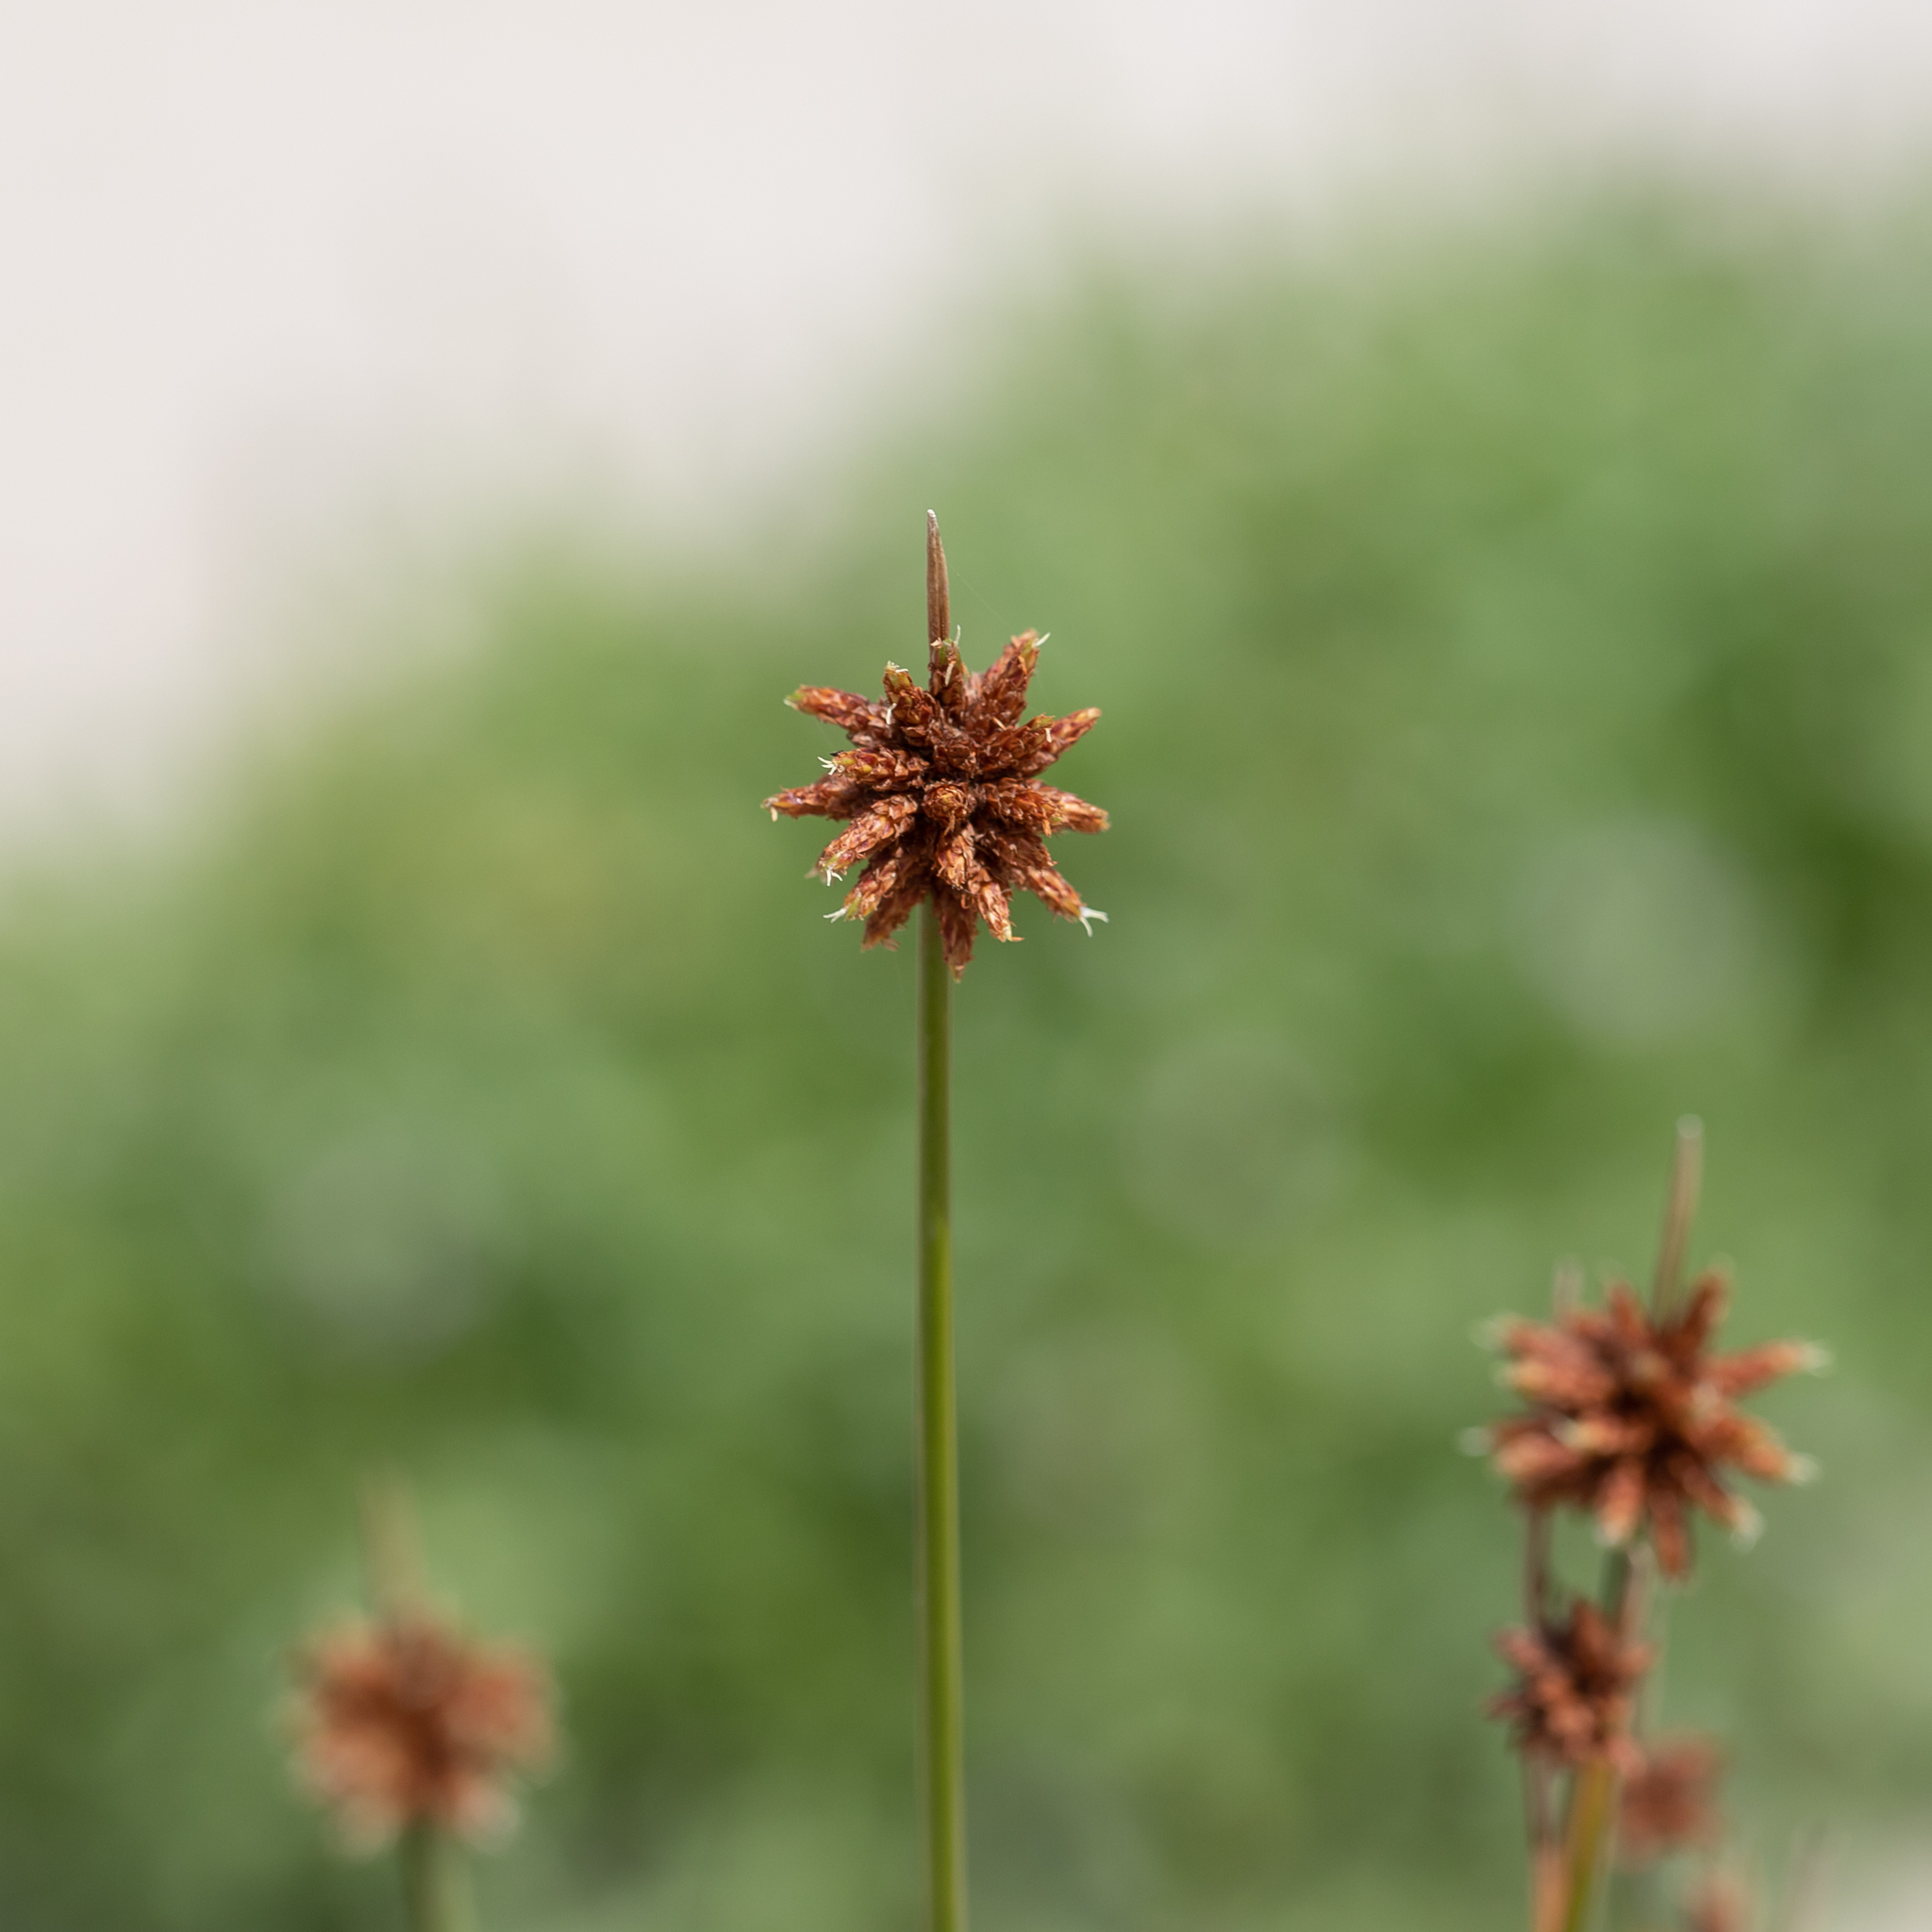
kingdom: Plantae
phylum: Tracheophyta
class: Liliopsida
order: Poales
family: Cyperaceae
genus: Ficinia
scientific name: Ficinia nodosa
